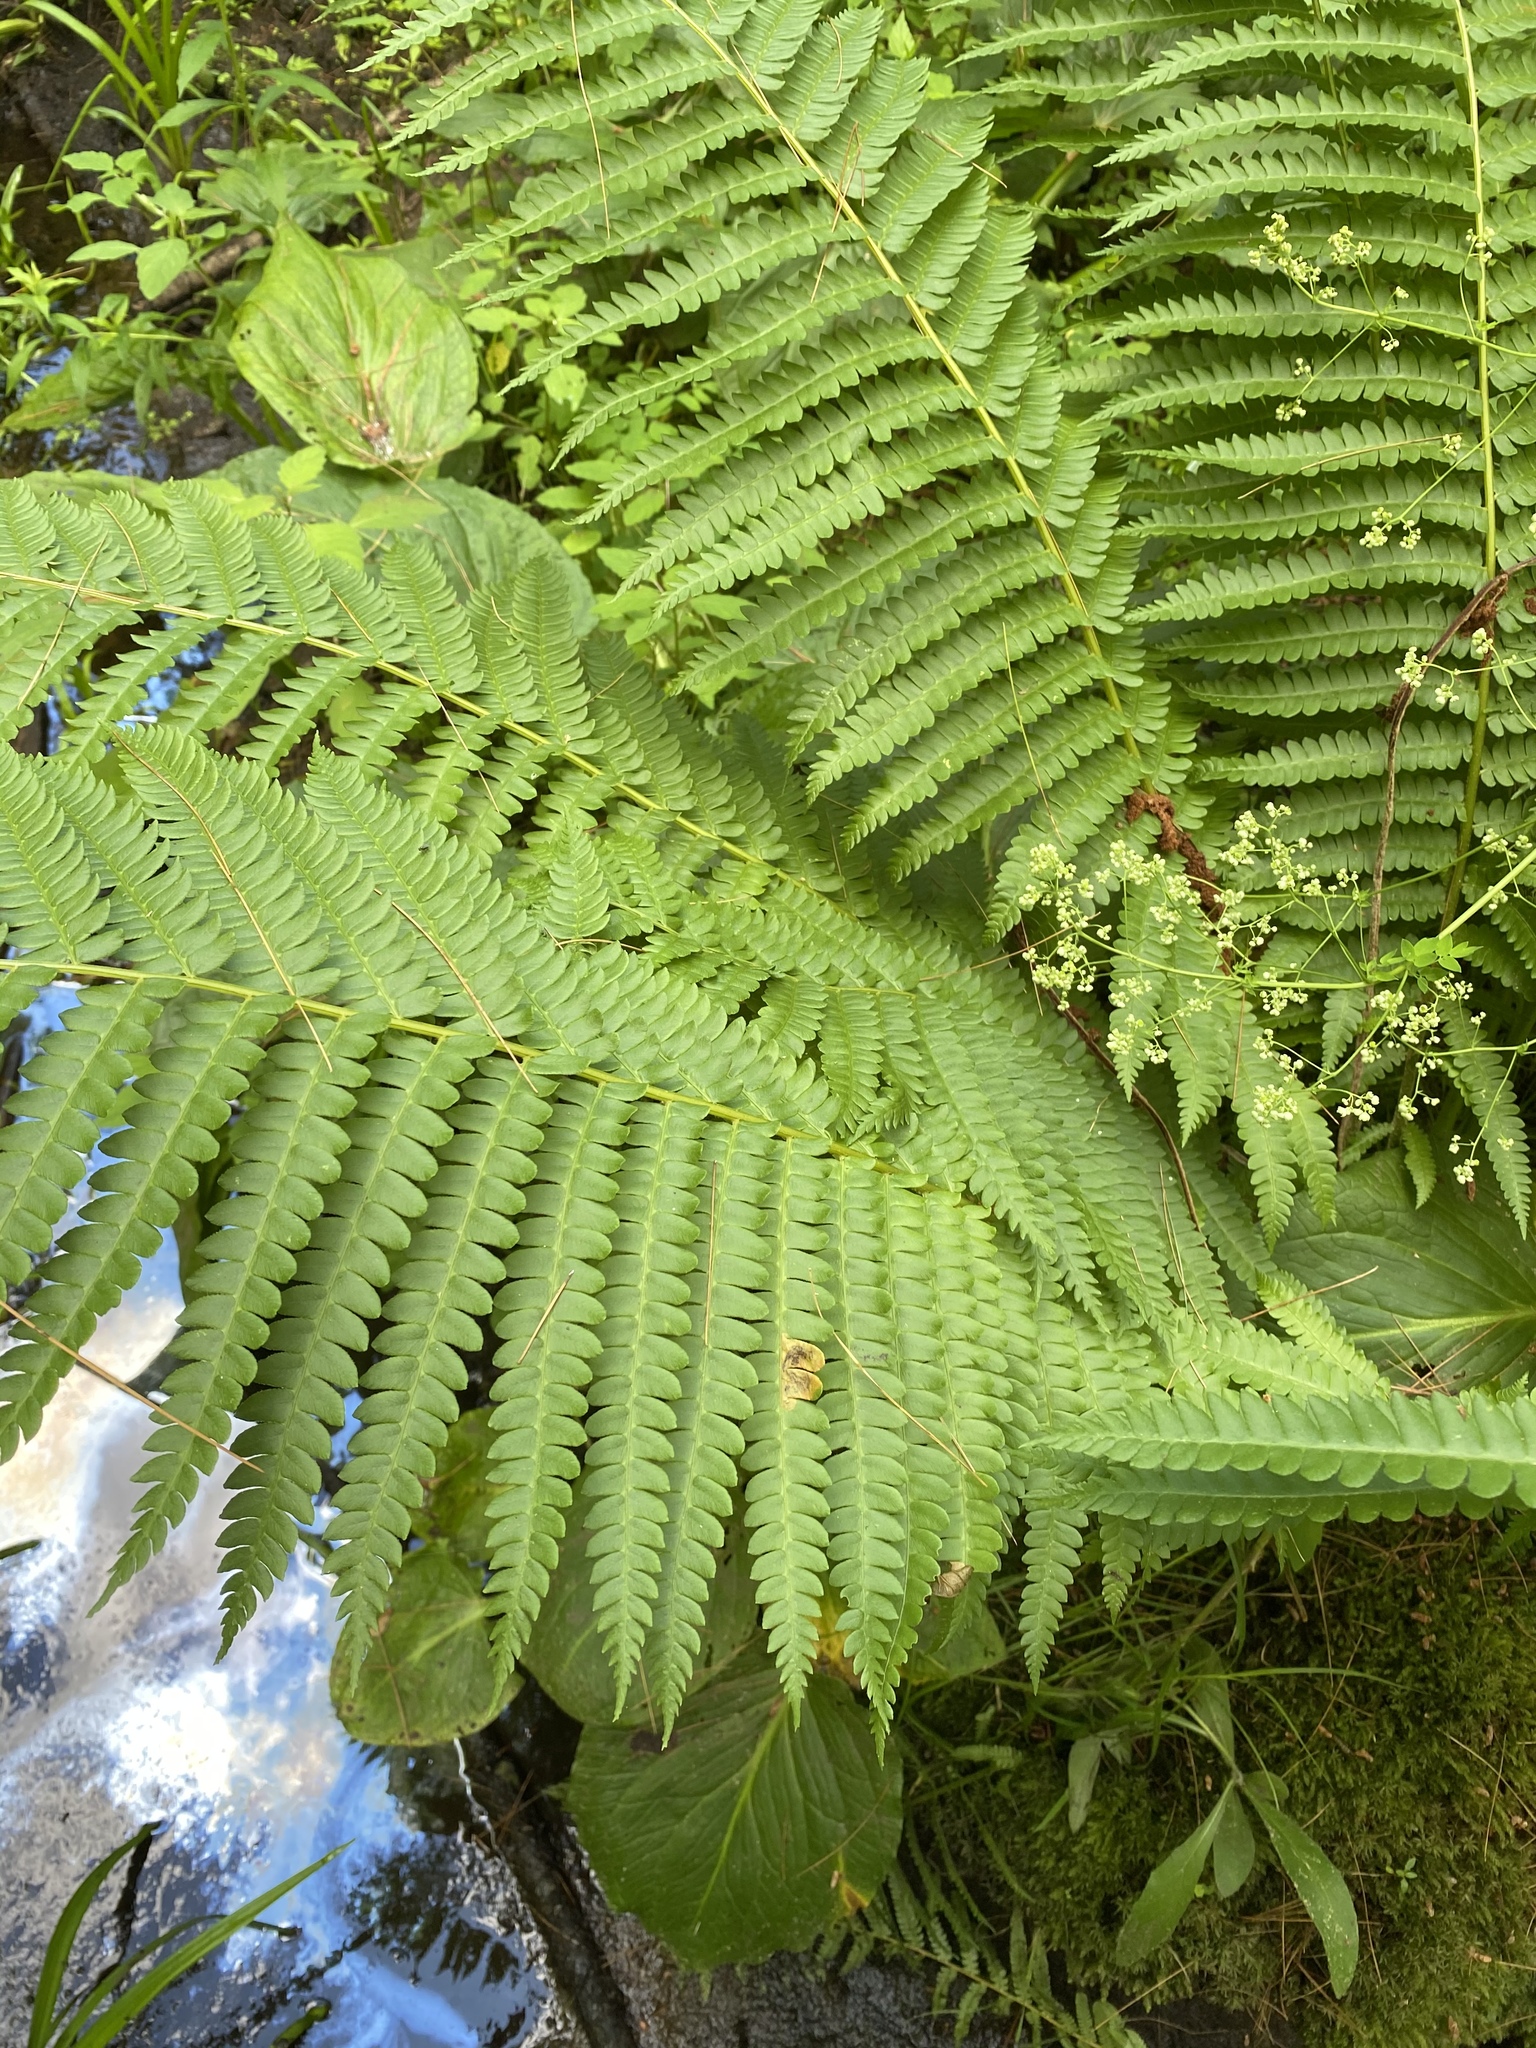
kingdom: Plantae
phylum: Tracheophyta
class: Polypodiopsida
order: Osmundales
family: Osmundaceae
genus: Osmundastrum
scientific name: Osmundastrum cinnamomeum
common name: Cinnamon fern
